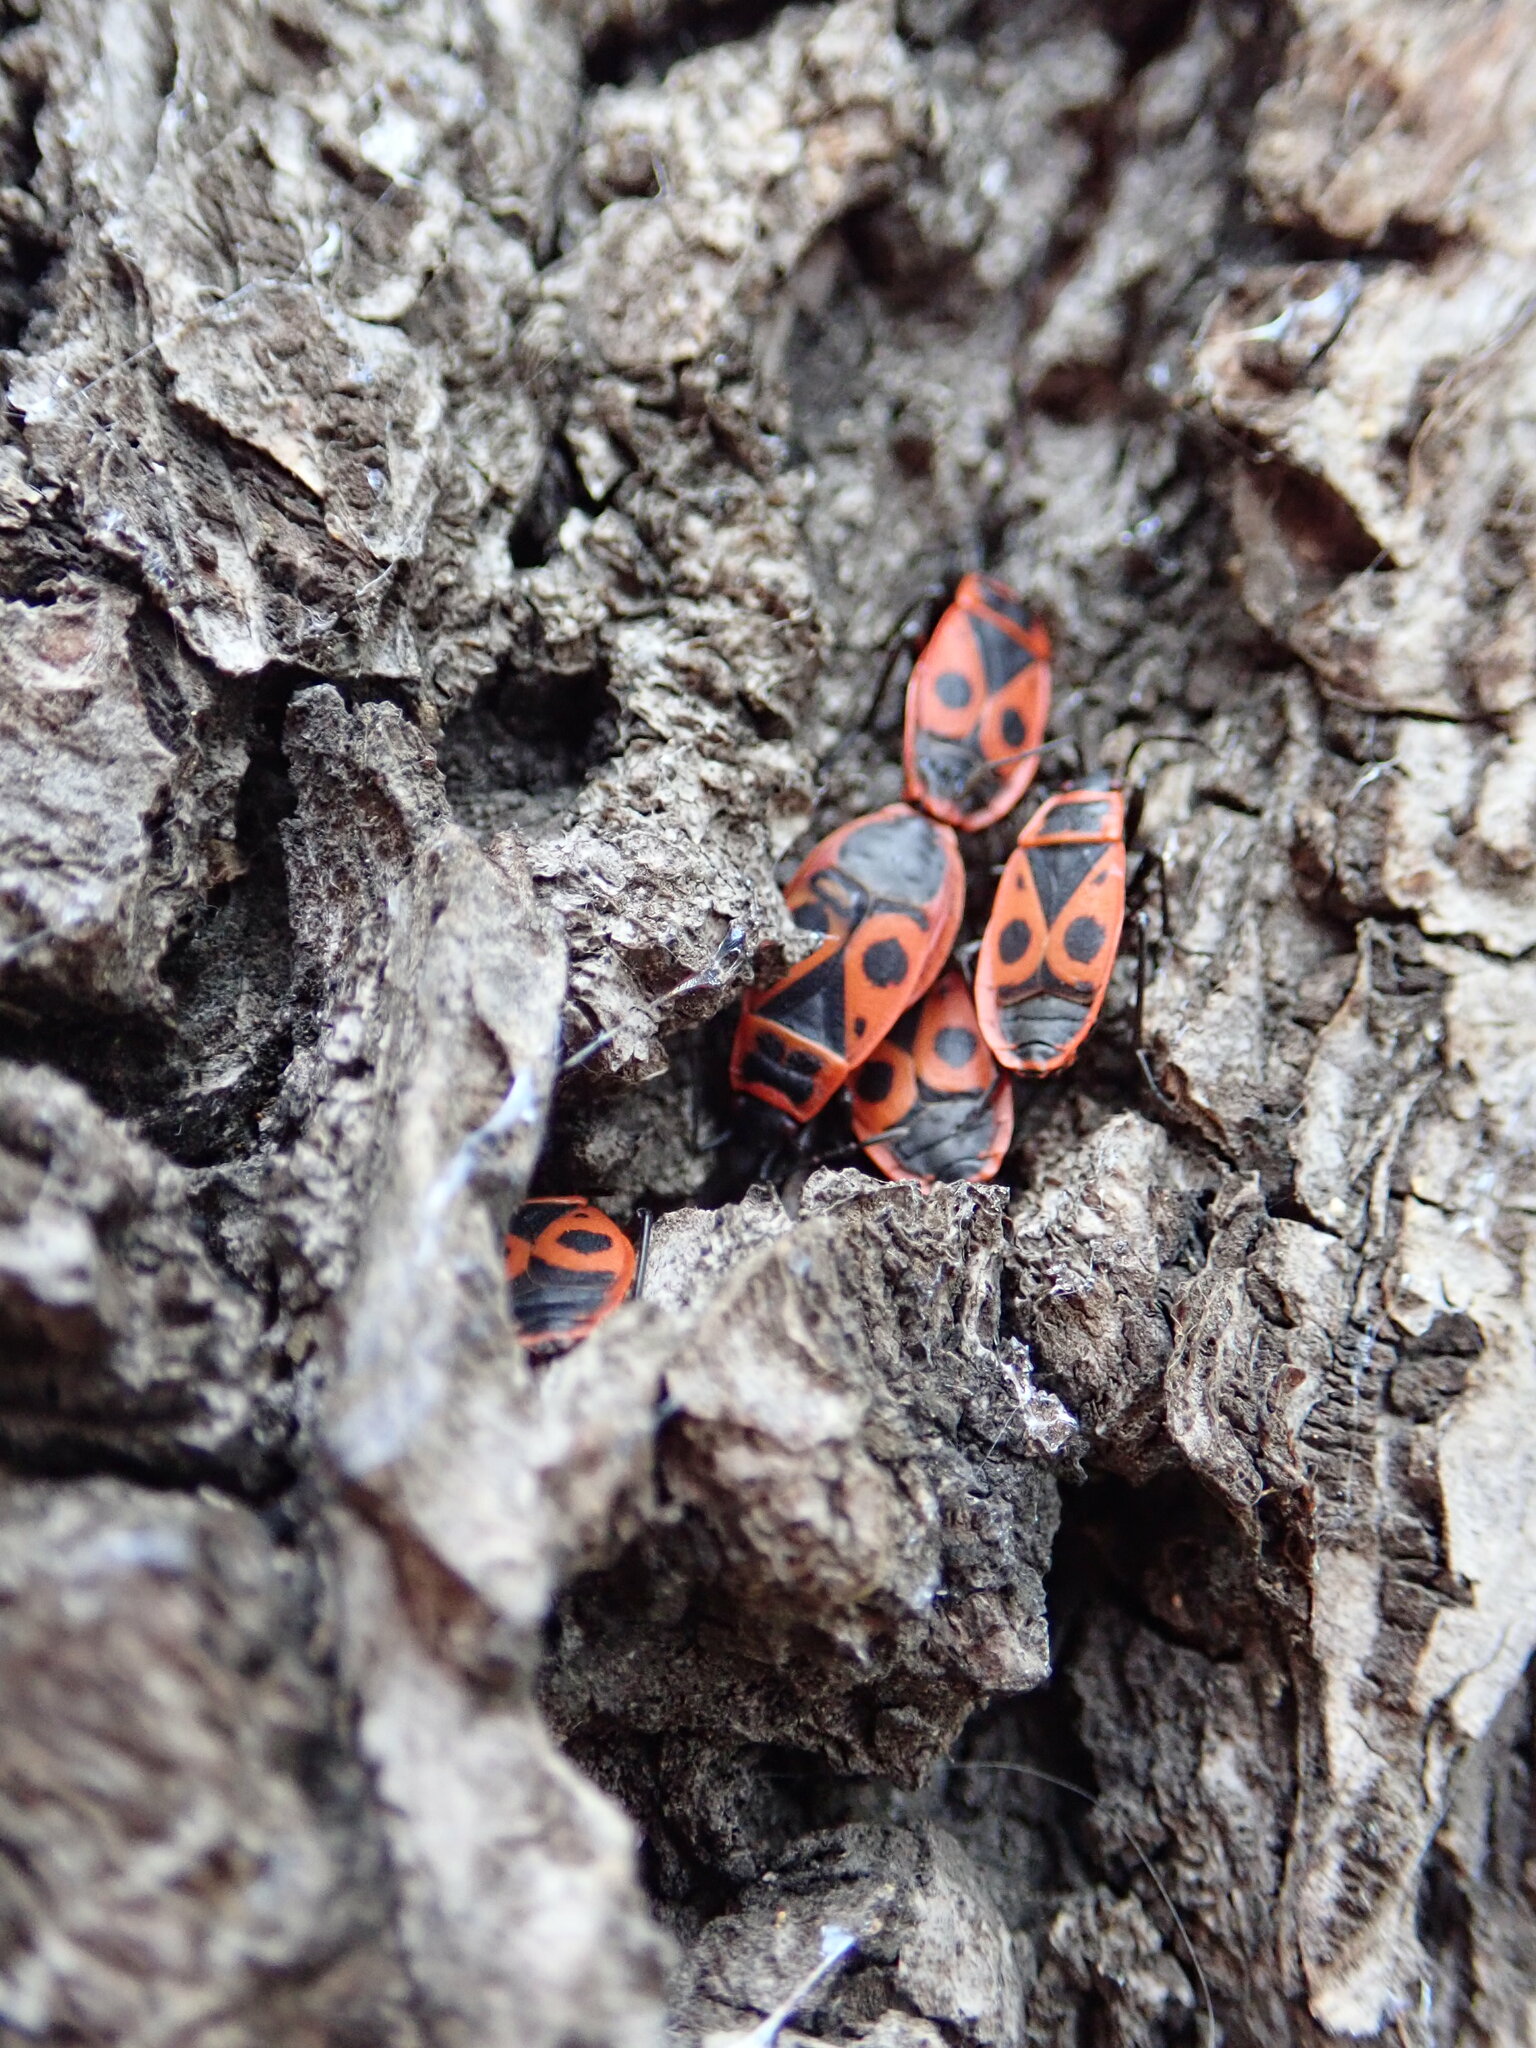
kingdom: Animalia
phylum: Arthropoda
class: Insecta
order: Hemiptera
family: Pyrrhocoridae
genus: Pyrrhocoris
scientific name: Pyrrhocoris apterus
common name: Firebug
